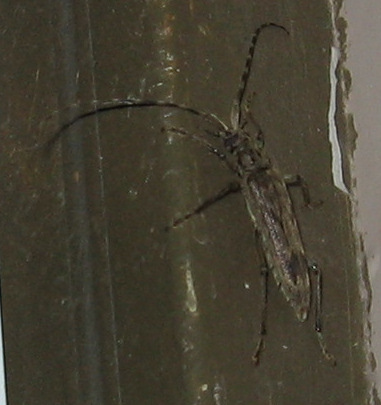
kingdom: Animalia
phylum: Arthropoda
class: Insecta
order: Coleoptera
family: Cerambycidae
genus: Elytrimitatrix
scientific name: Elytrimitatrix undata
